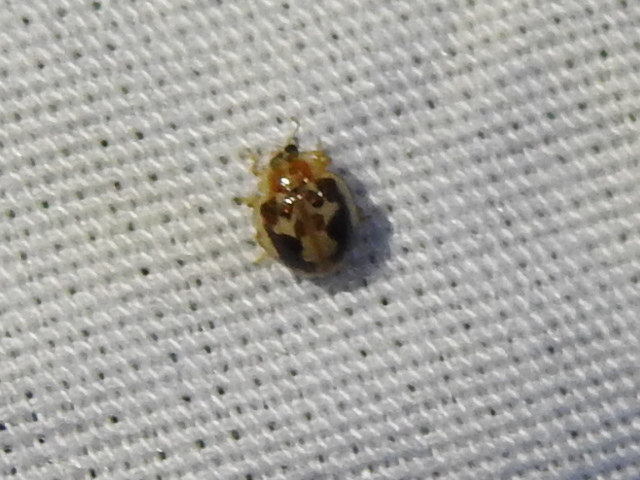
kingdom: Animalia
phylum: Arthropoda
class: Insecta
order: Coleoptera
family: Coccinellidae
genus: Psyllobora
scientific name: Psyllobora renifer
